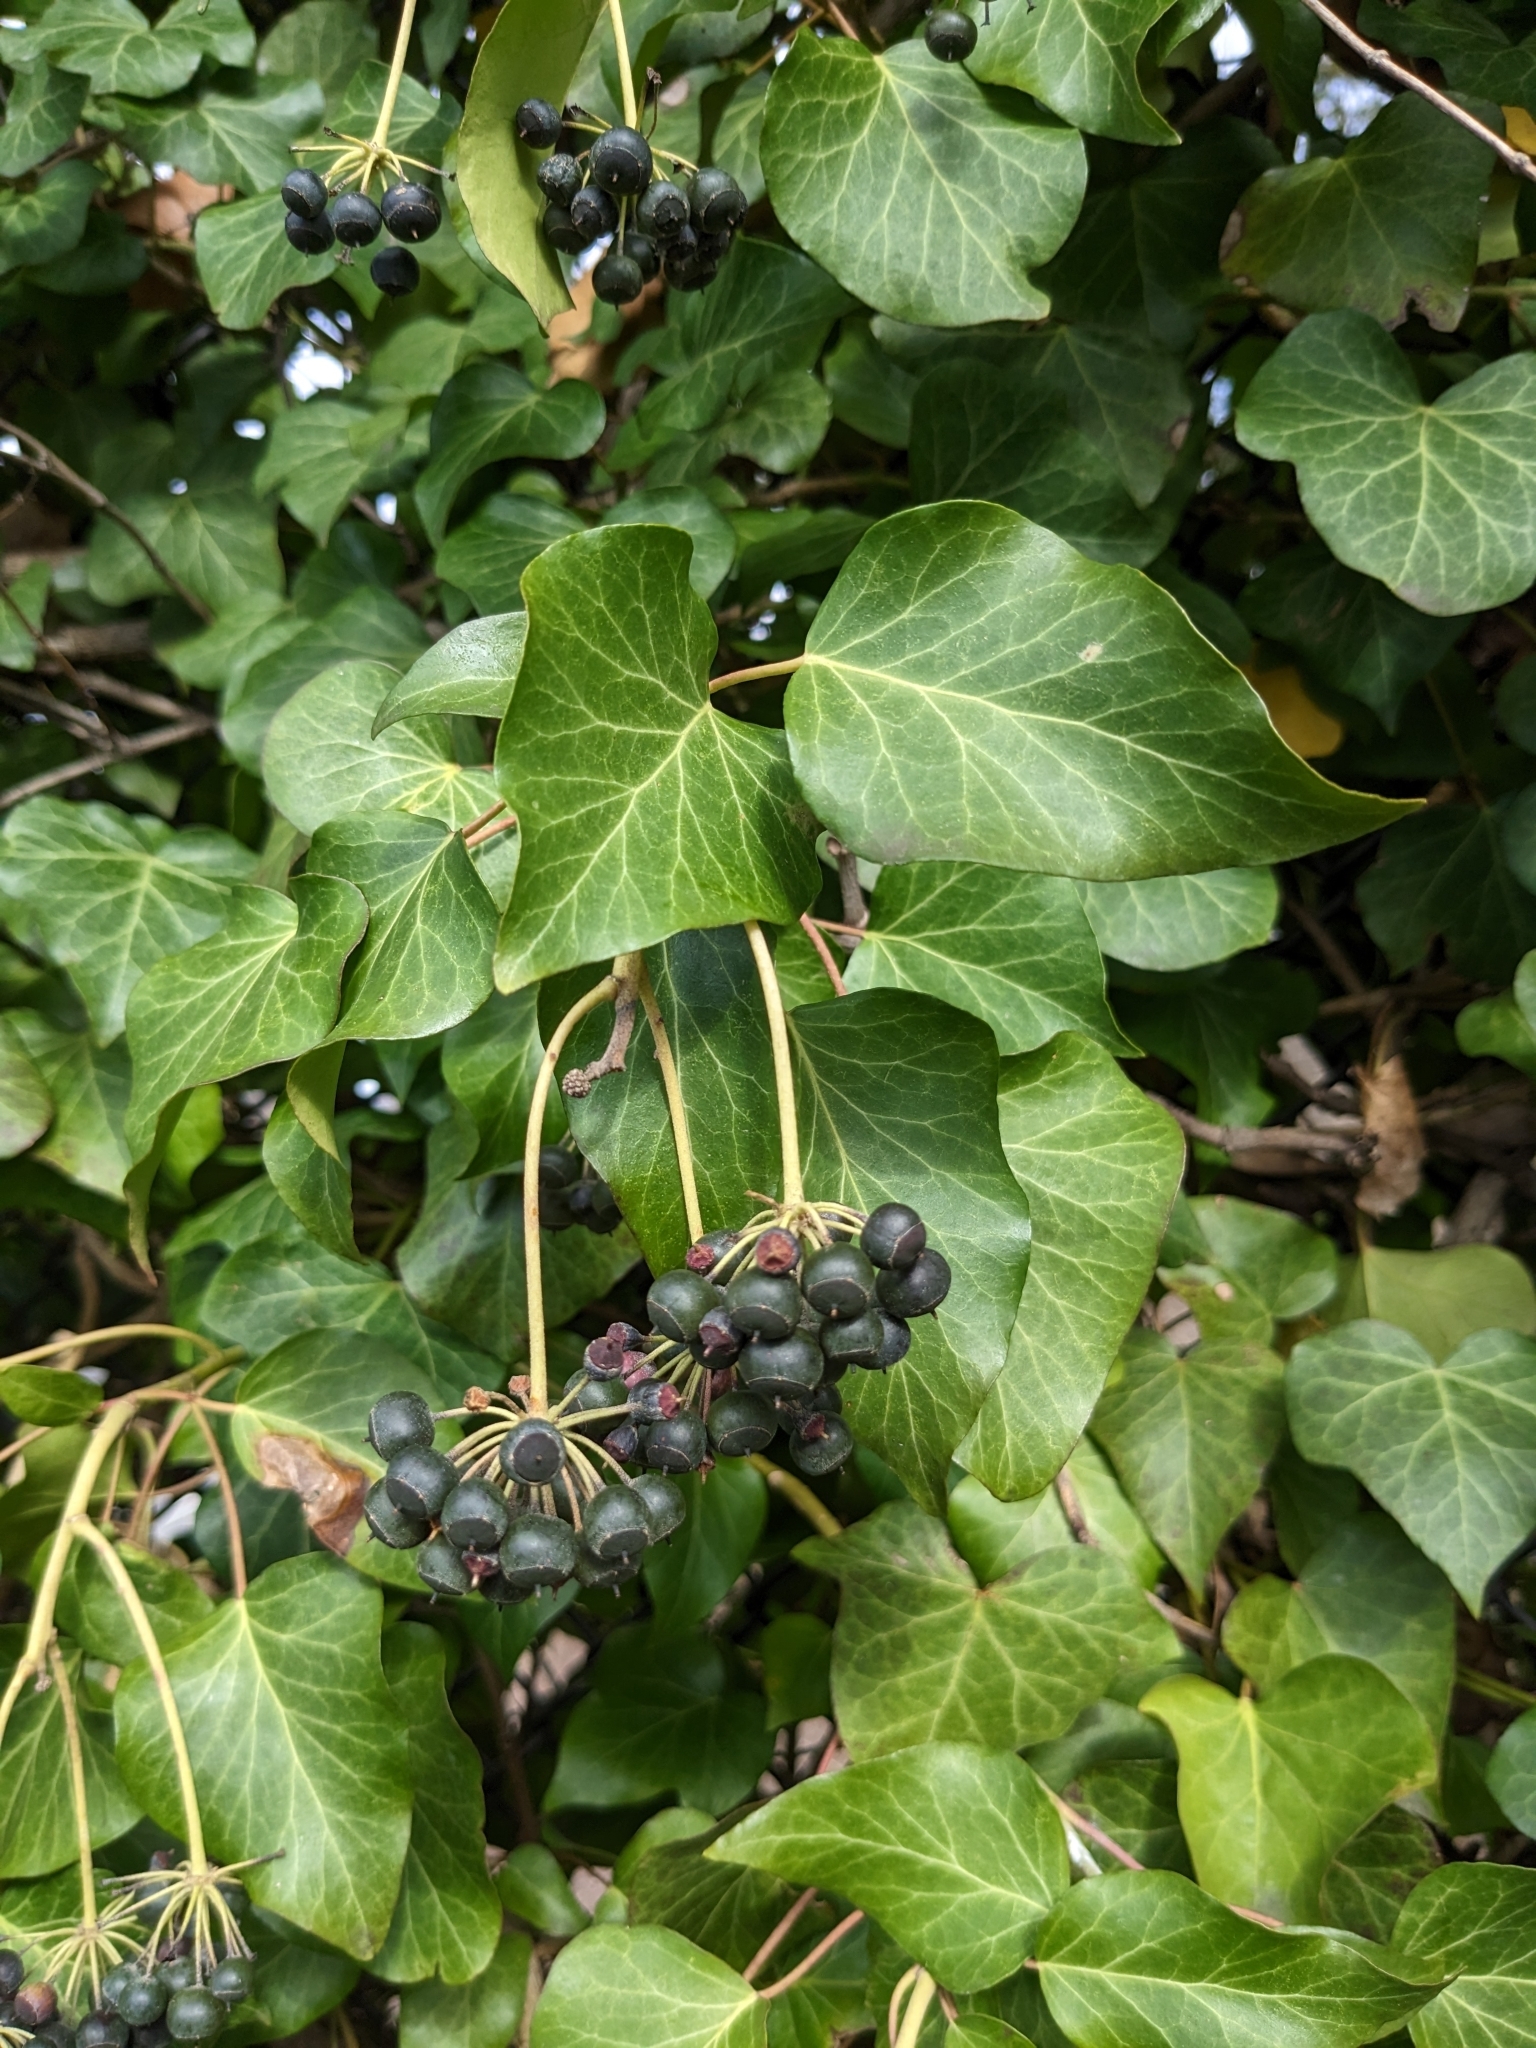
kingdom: Plantae
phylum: Tracheophyta
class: Magnoliopsida
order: Apiales
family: Araliaceae
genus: Hedera
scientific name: Hedera helix
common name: Ivy
